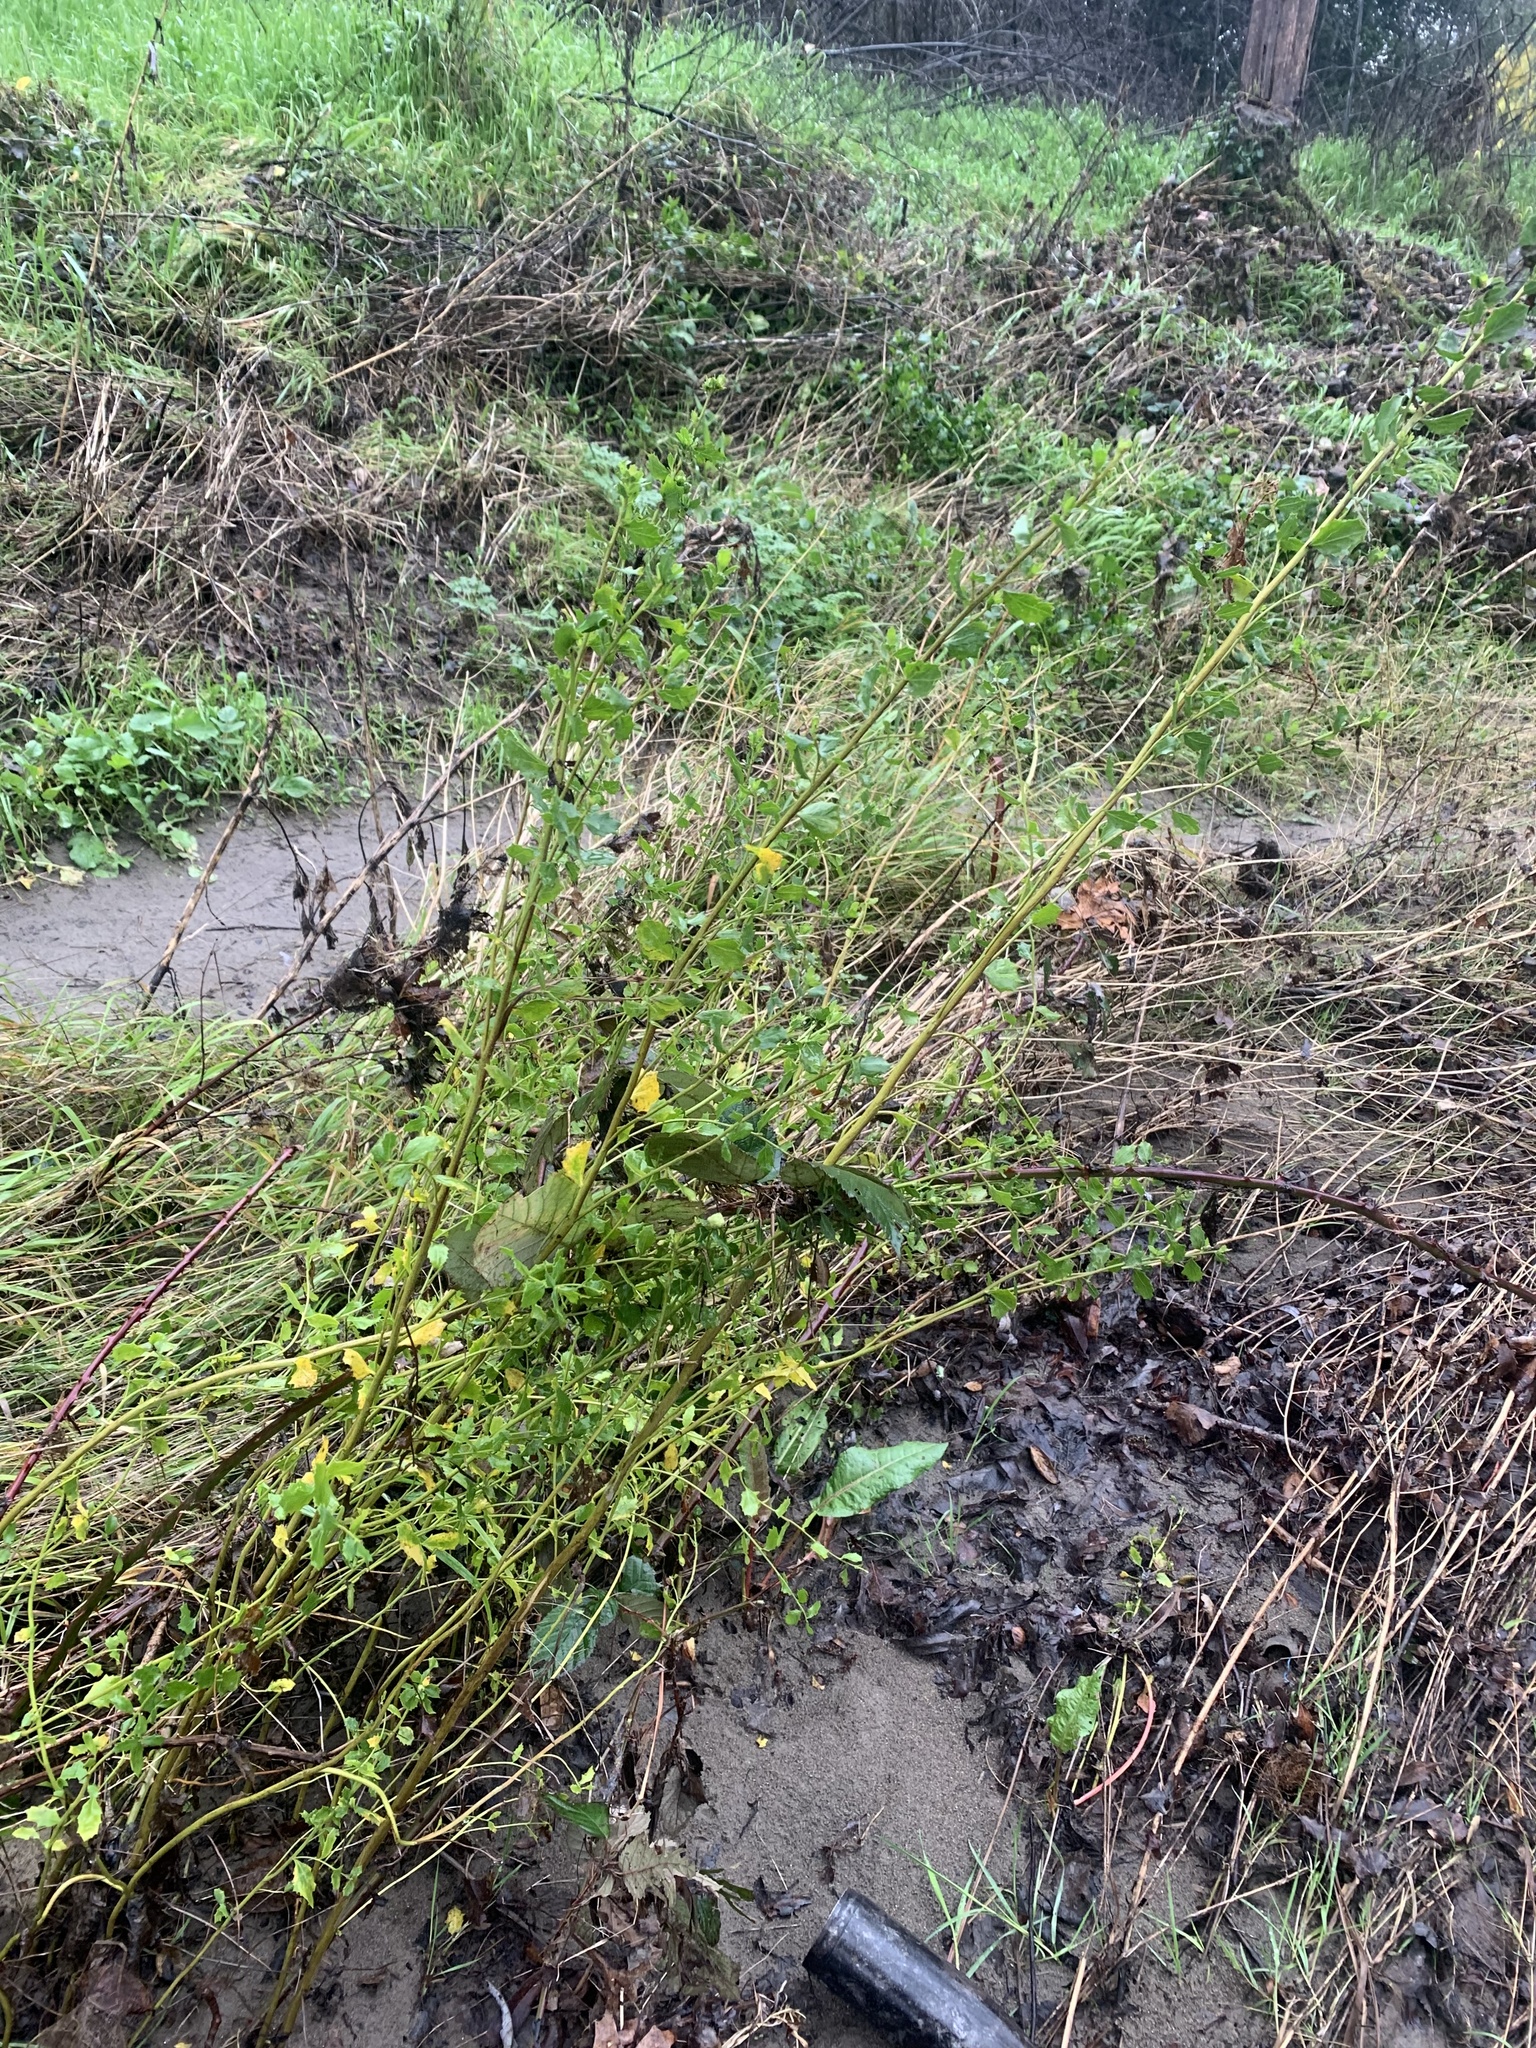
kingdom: Plantae
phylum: Tracheophyta
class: Magnoliopsida
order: Asterales
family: Asteraceae
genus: Baccharis
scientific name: Baccharis pilularis
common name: Coyotebrush
